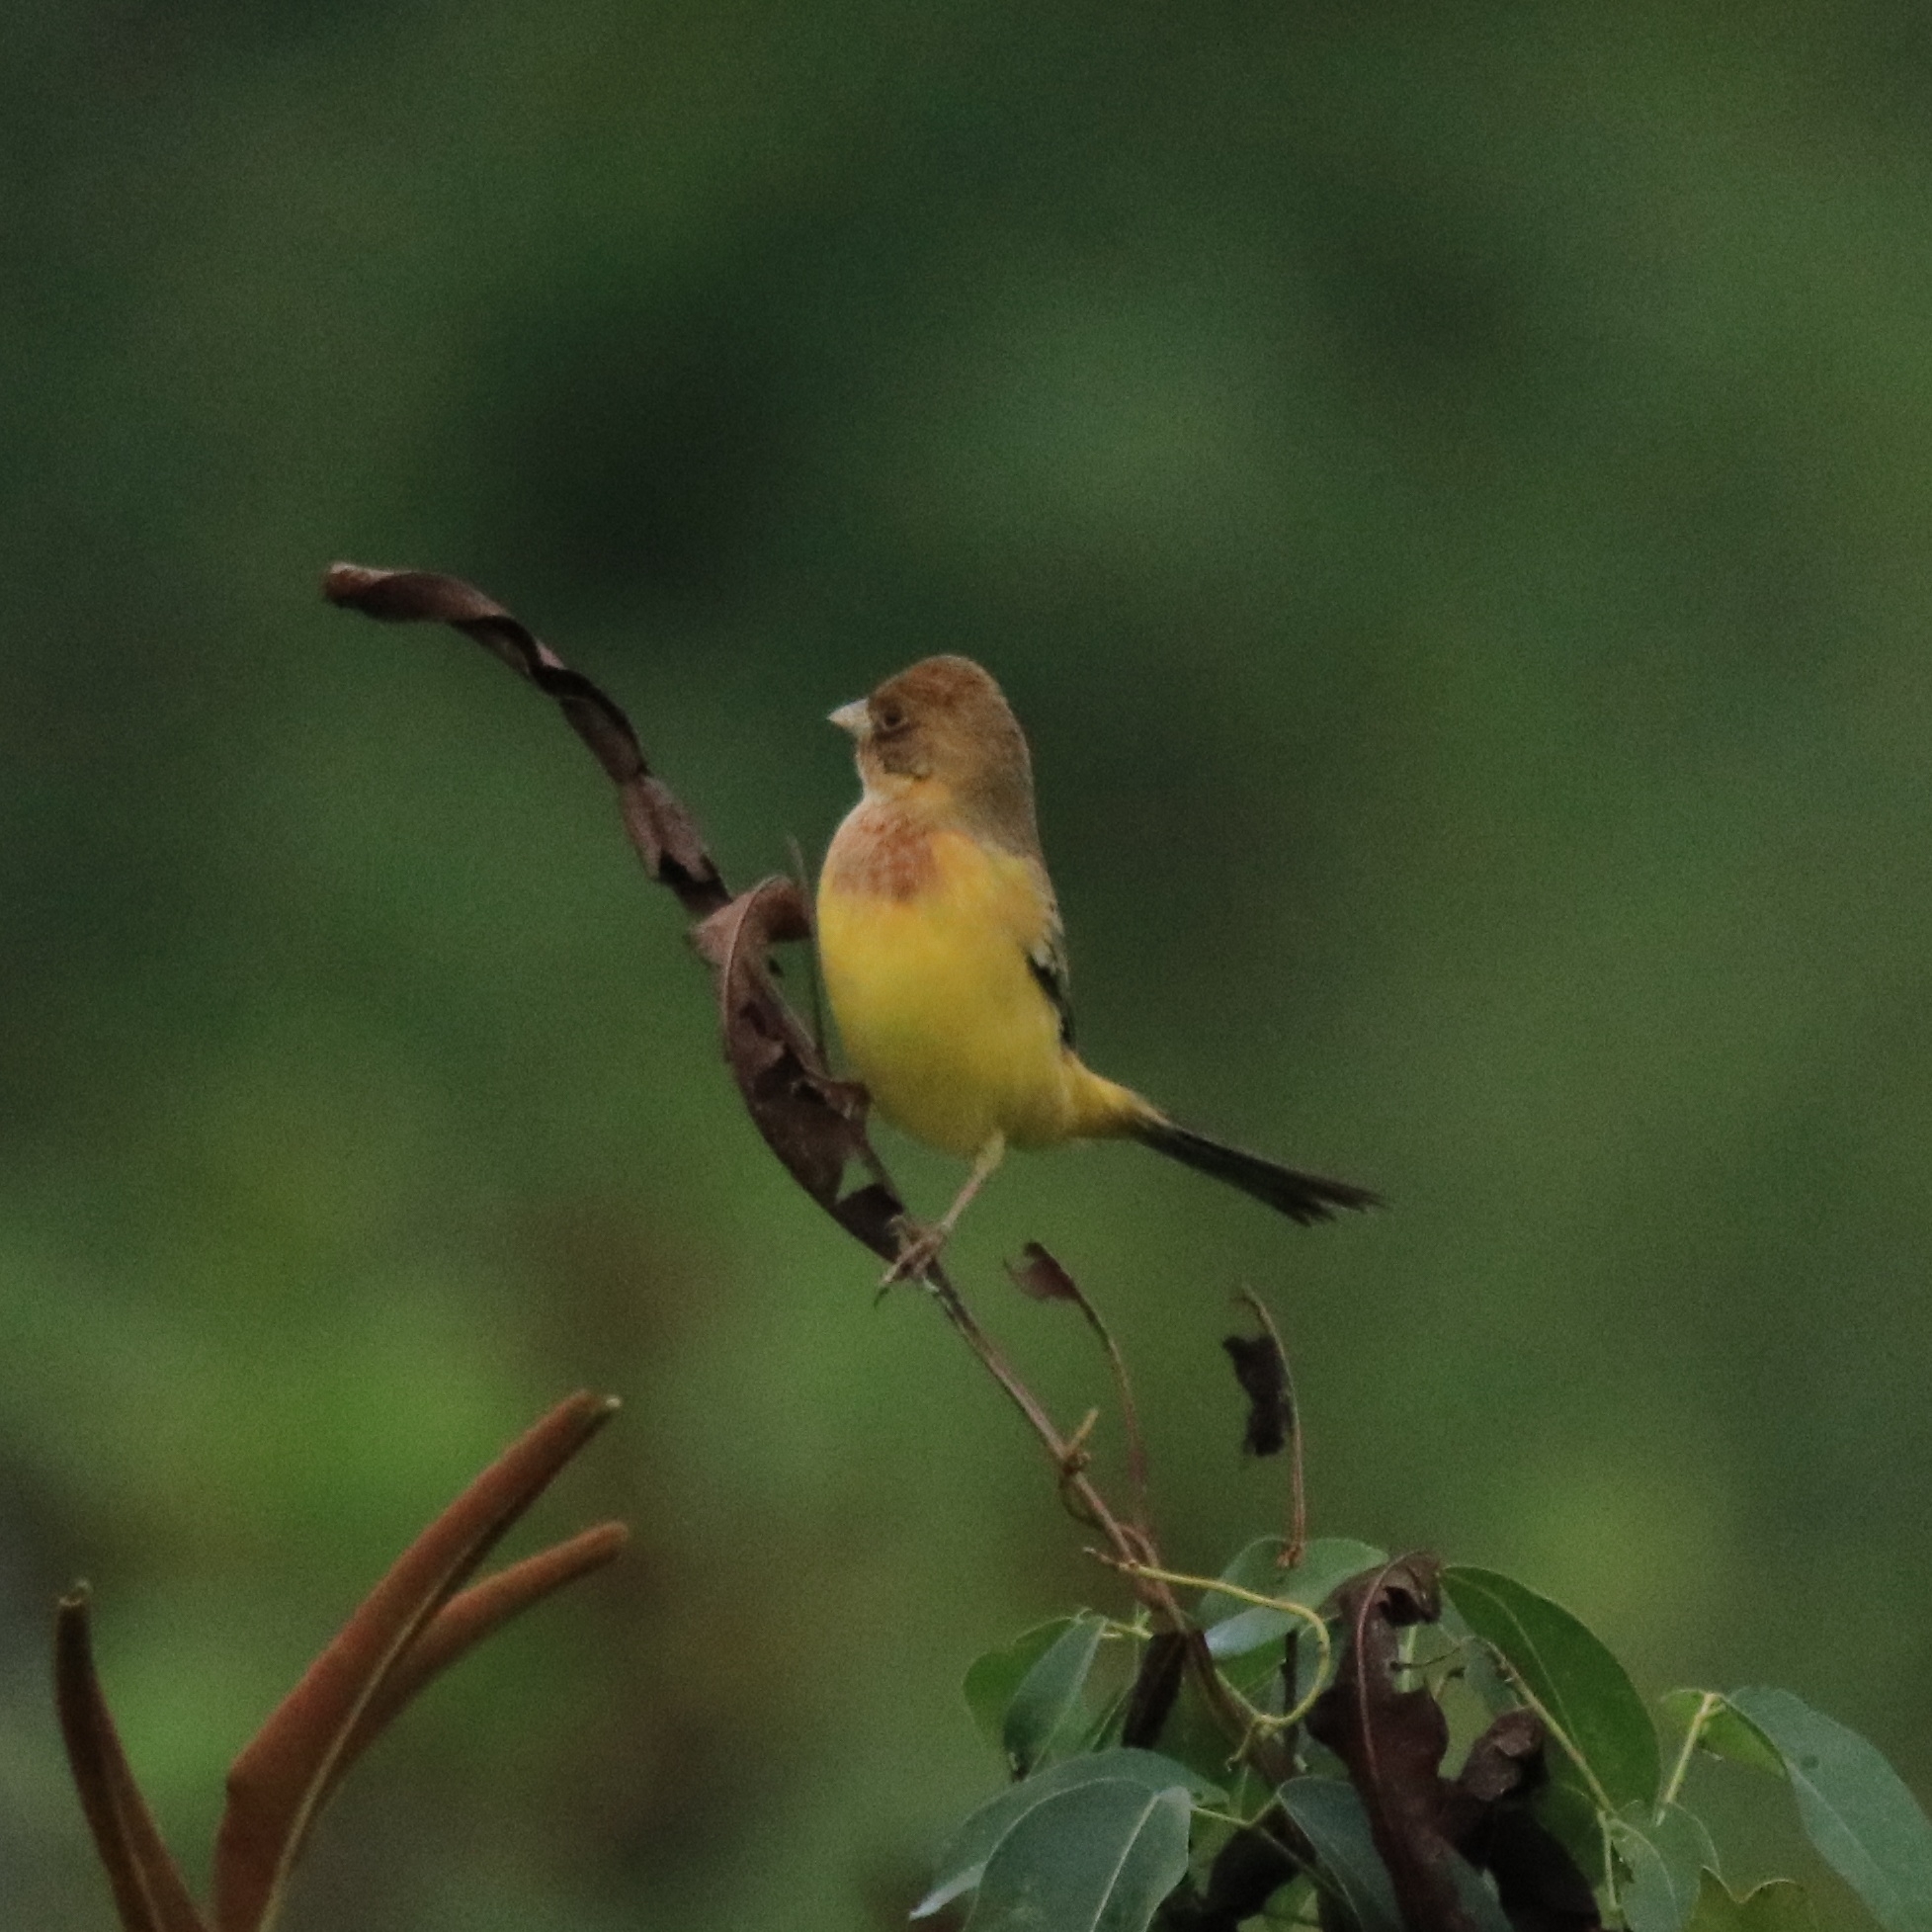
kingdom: Animalia
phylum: Chordata
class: Aves
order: Passeriformes
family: Emberizidae
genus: Emberiza
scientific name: Emberiza bruniceps
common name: Red-headed bunting
